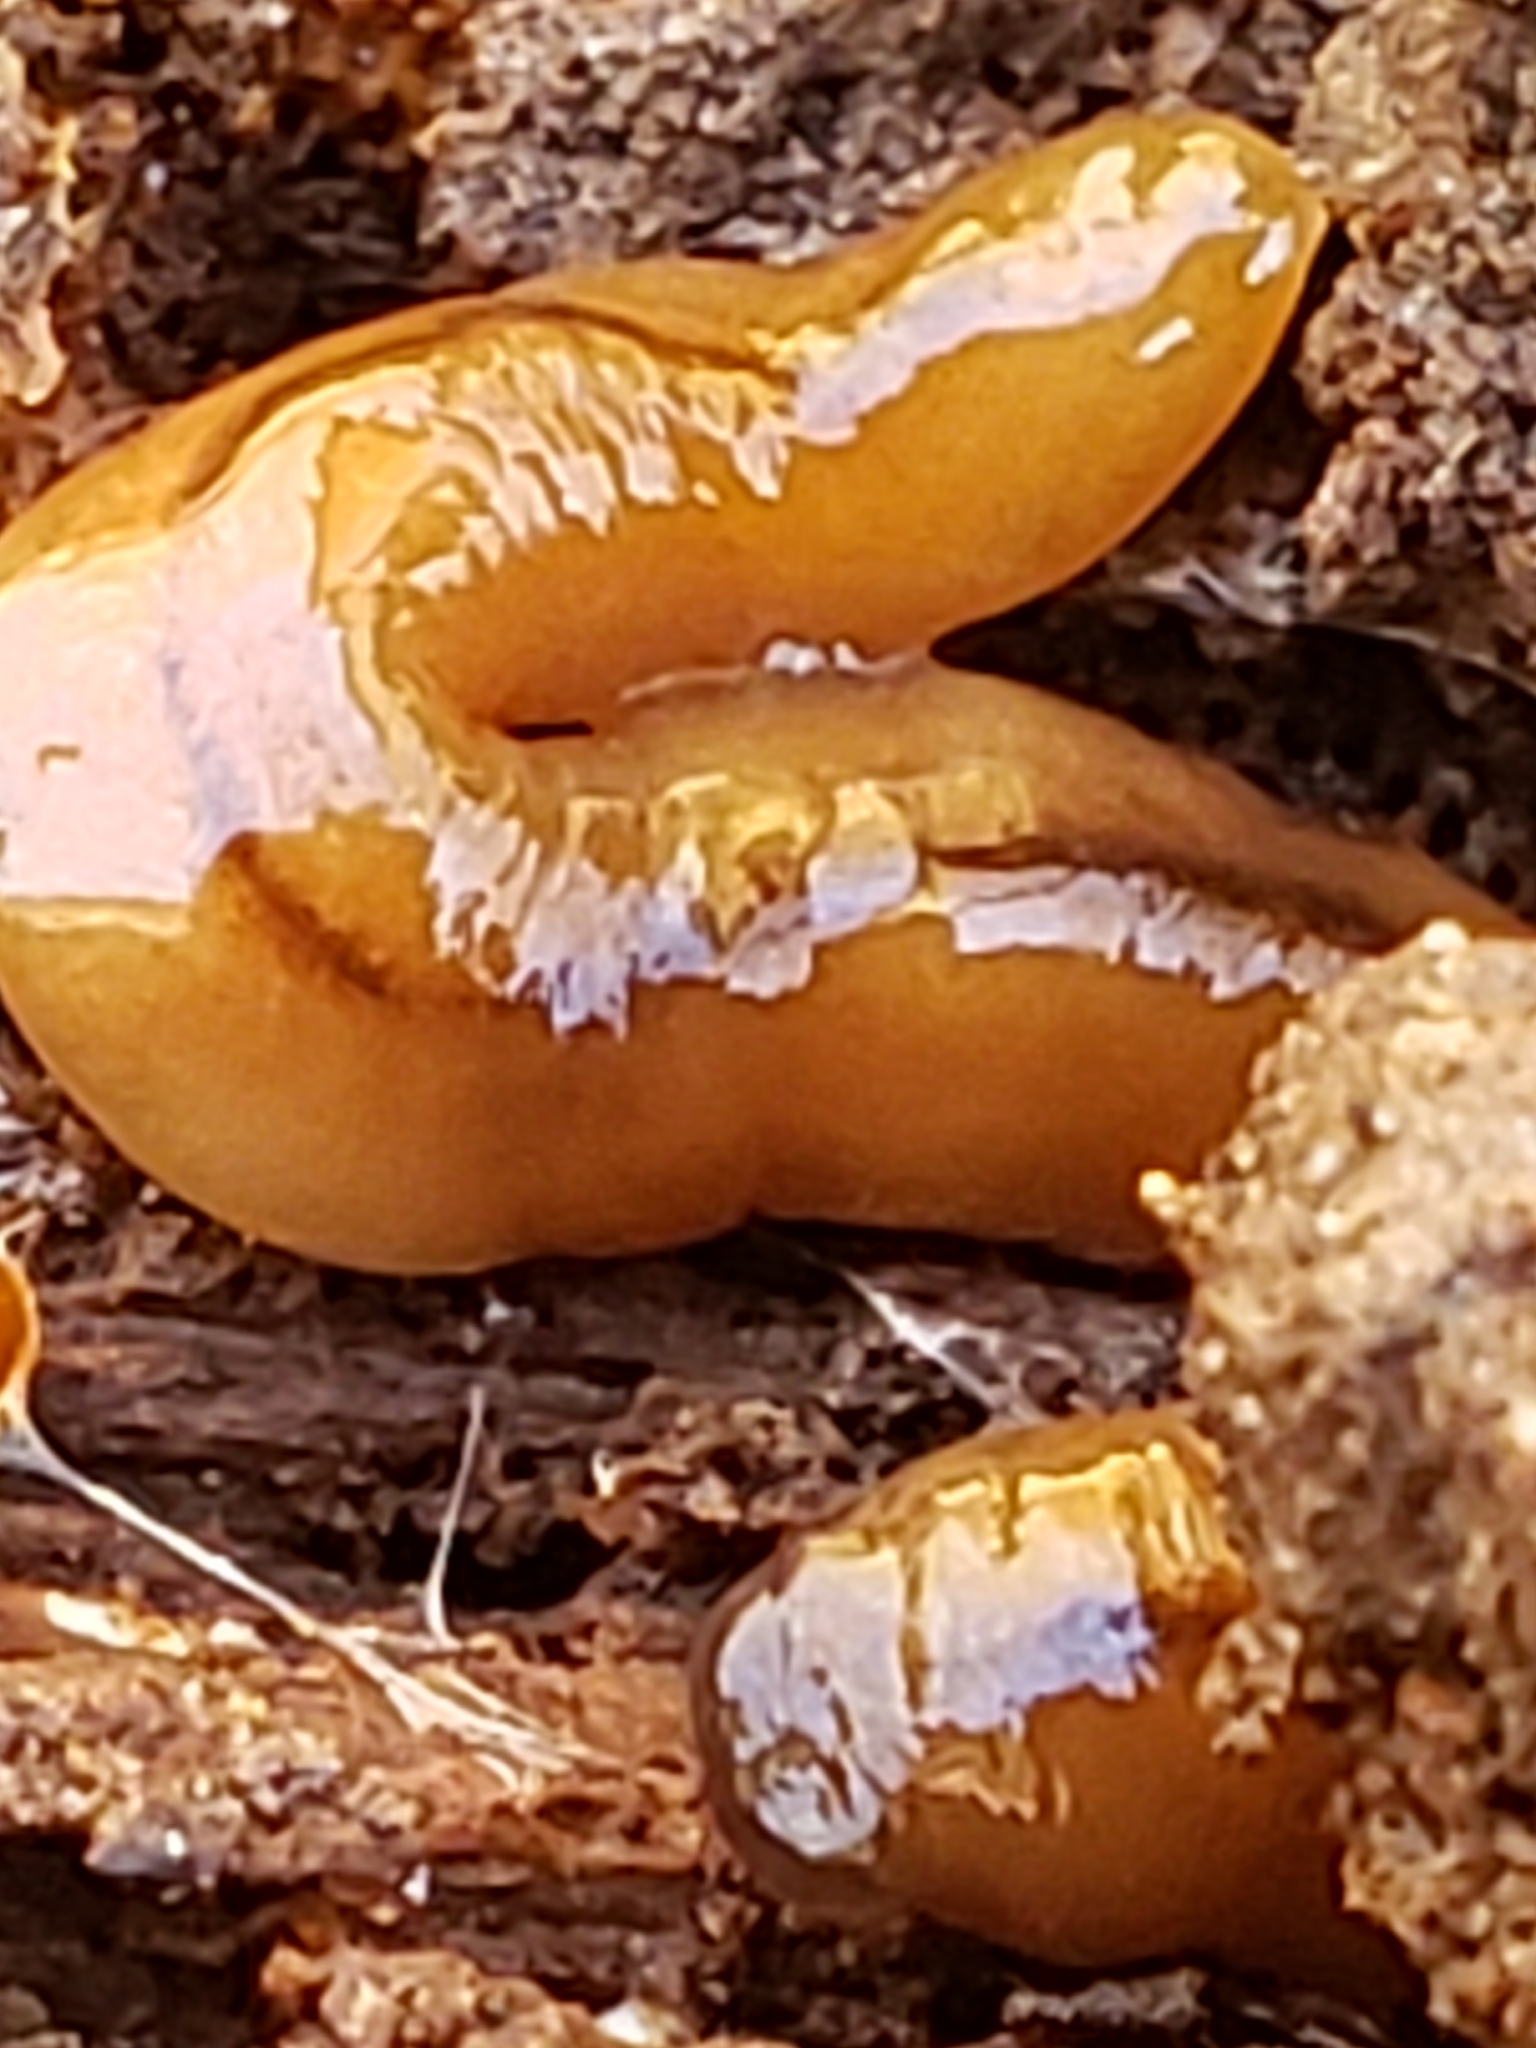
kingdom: Animalia
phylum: Platyhelminthes
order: Tricladida
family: Geoplanidae
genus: Bipalium
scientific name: Bipalium adventitium
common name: Land planarian
